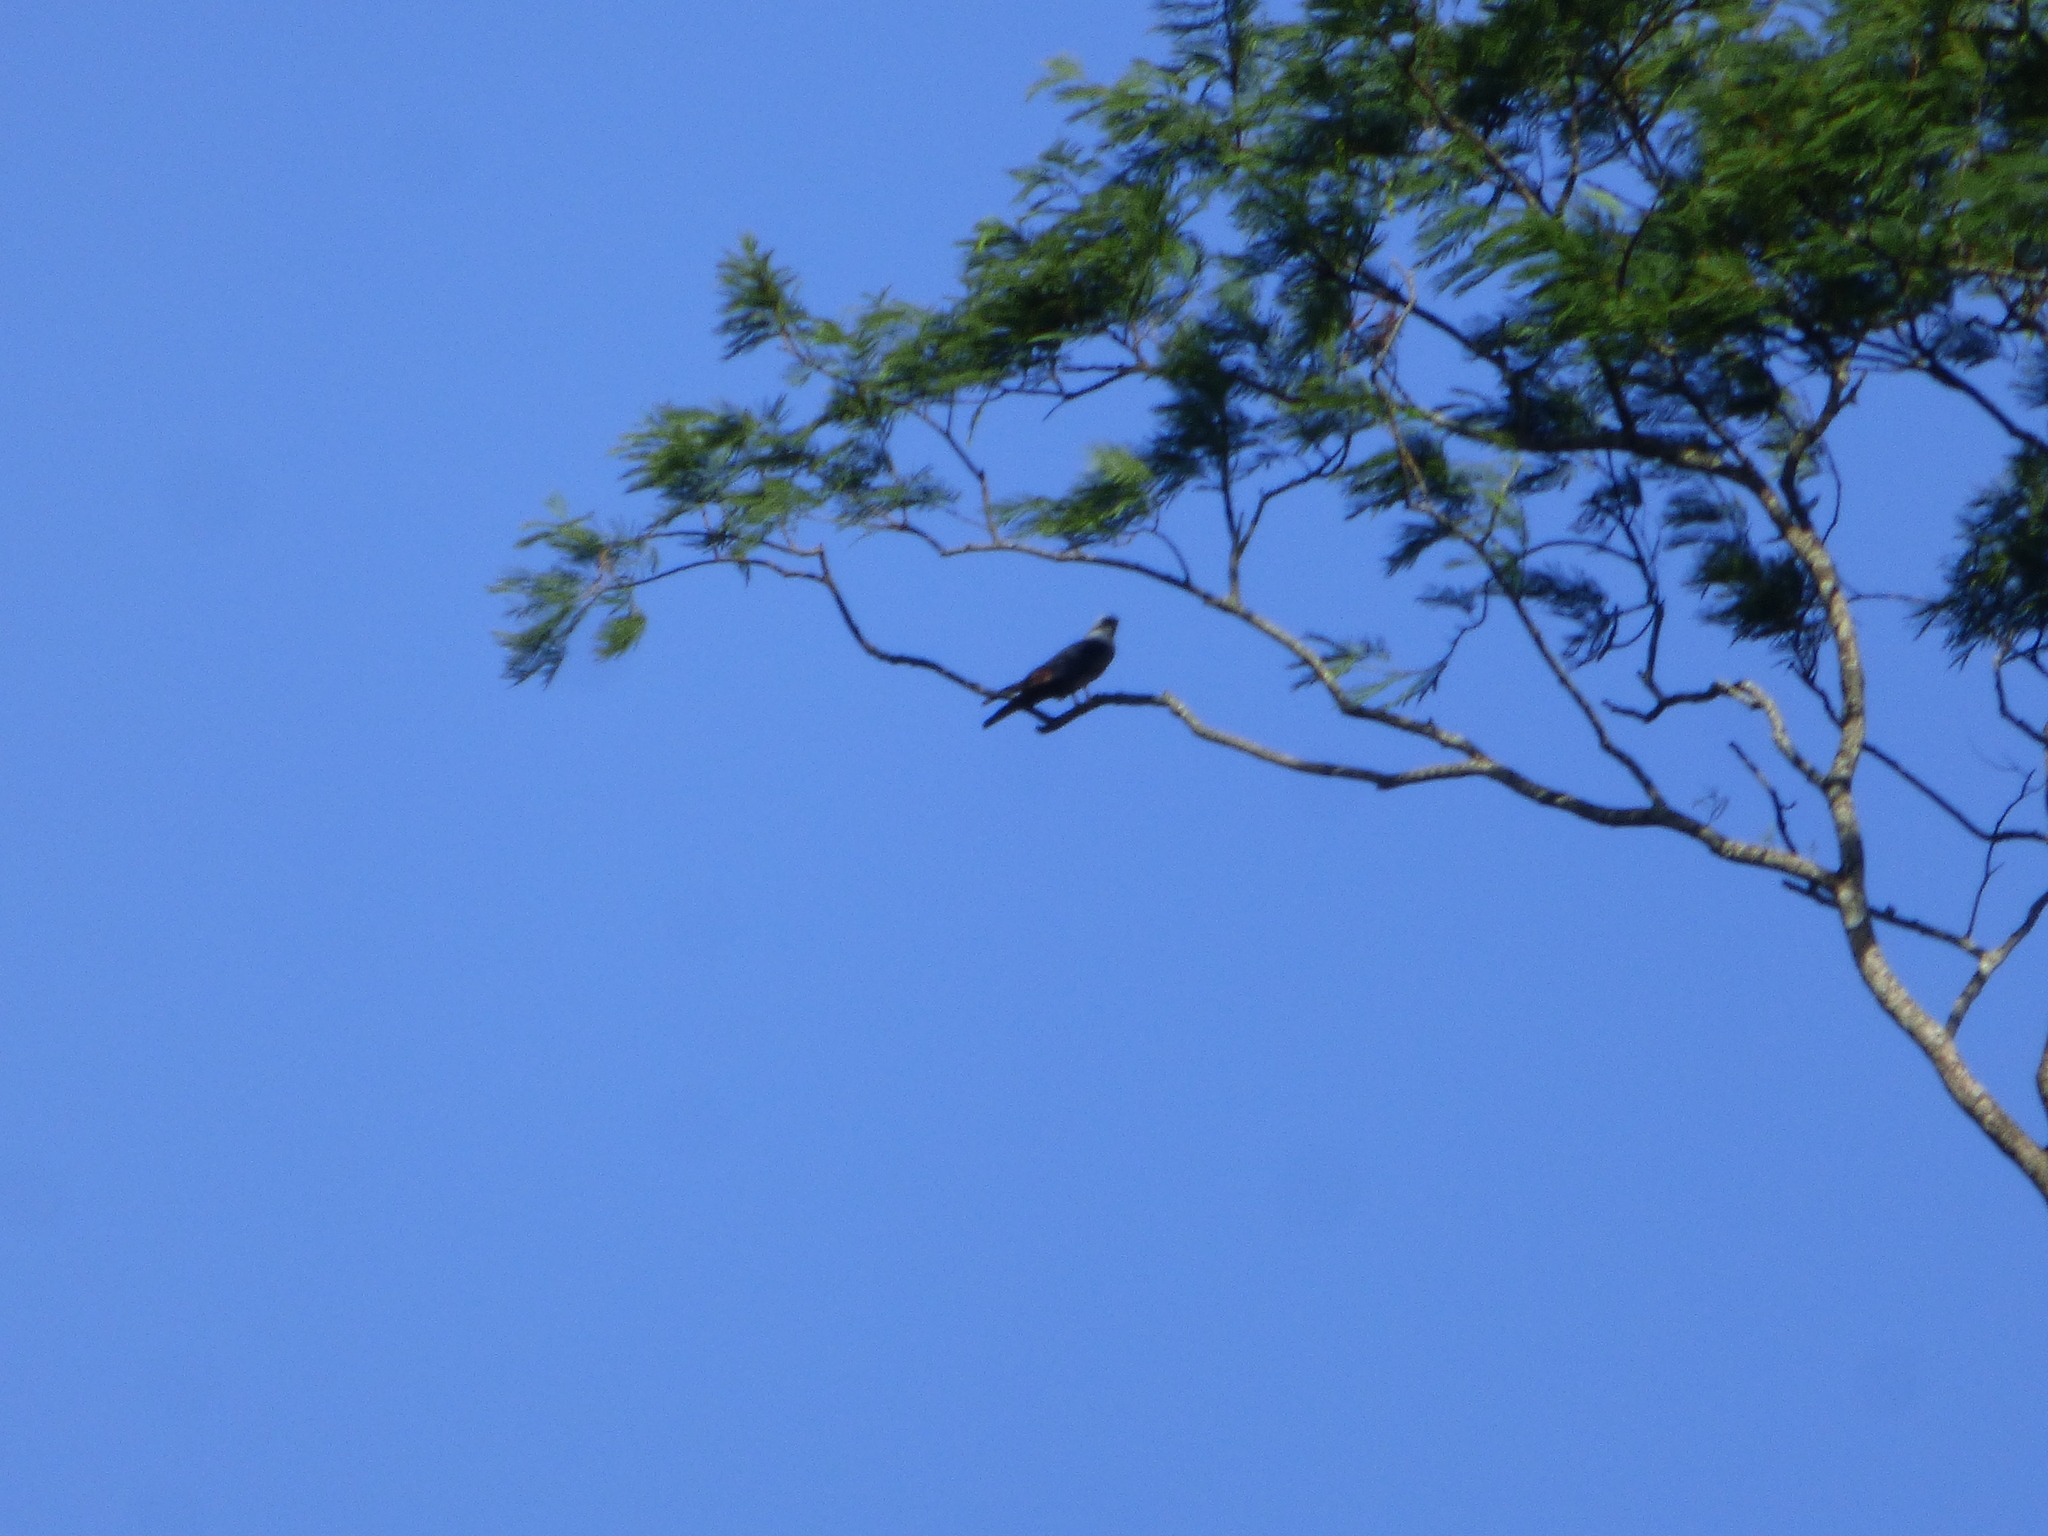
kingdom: Animalia
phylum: Chordata
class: Aves
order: Accipitriformes
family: Accipitridae
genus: Ictinia
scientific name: Ictinia plumbea
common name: Plumbeous kite
